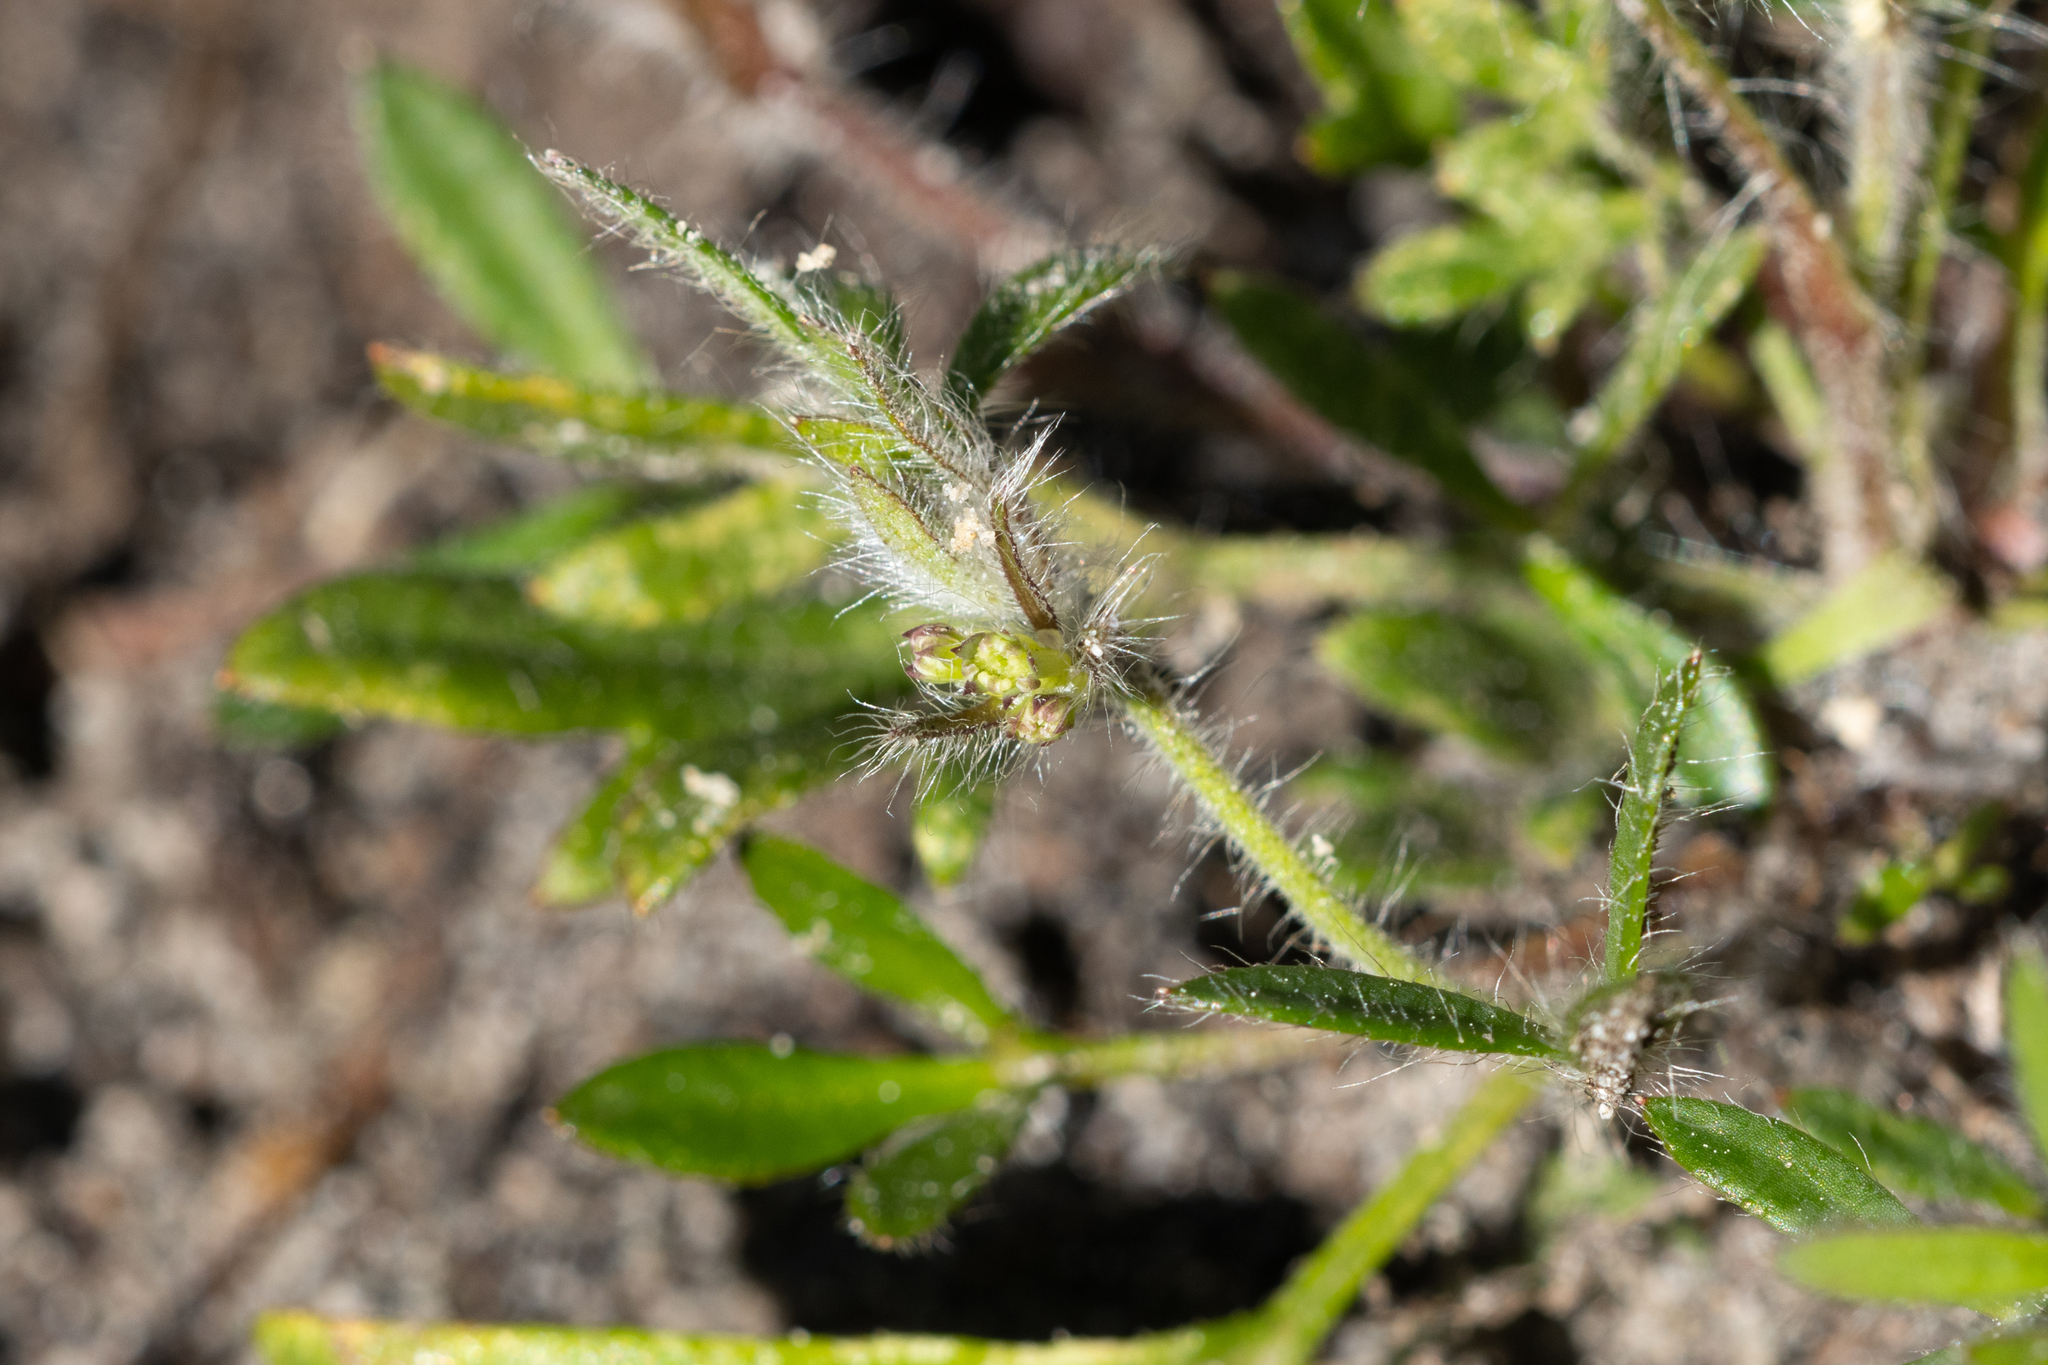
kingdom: Plantae
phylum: Tracheophyta
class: Magnoliopsida
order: Apiales
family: Apiaceae
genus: Xanthosia
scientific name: Xanthosia huegelii
